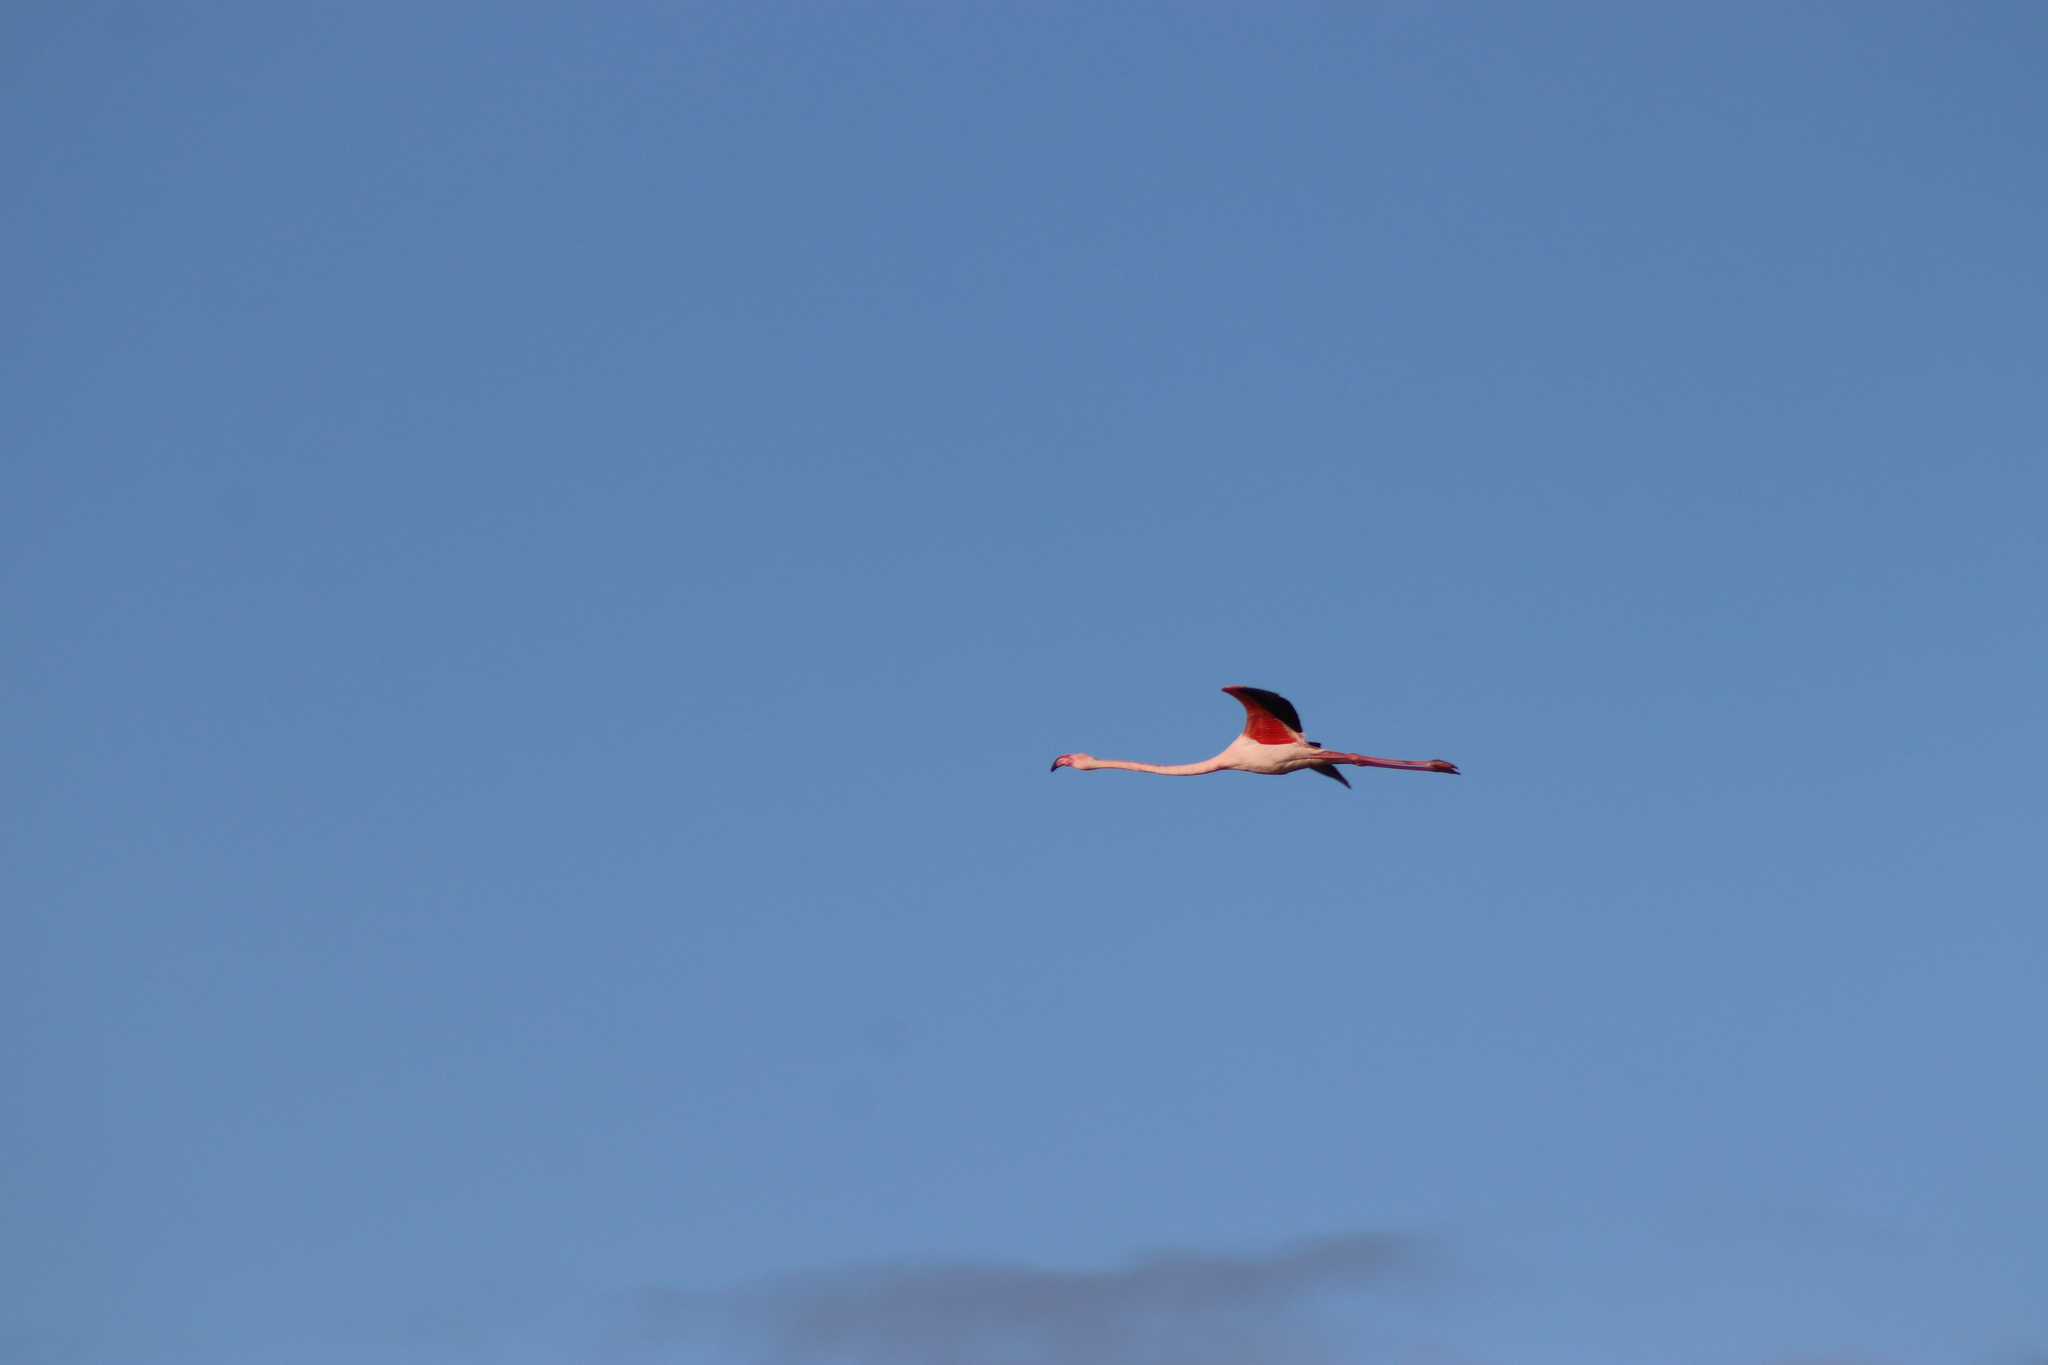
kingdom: Animalia
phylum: Chordata
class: Aves
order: Phoenicopteriformes
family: Phoenicopteridae
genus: Phoenicopterus
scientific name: Phoenicopterus roseus
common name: Greater flamingo
